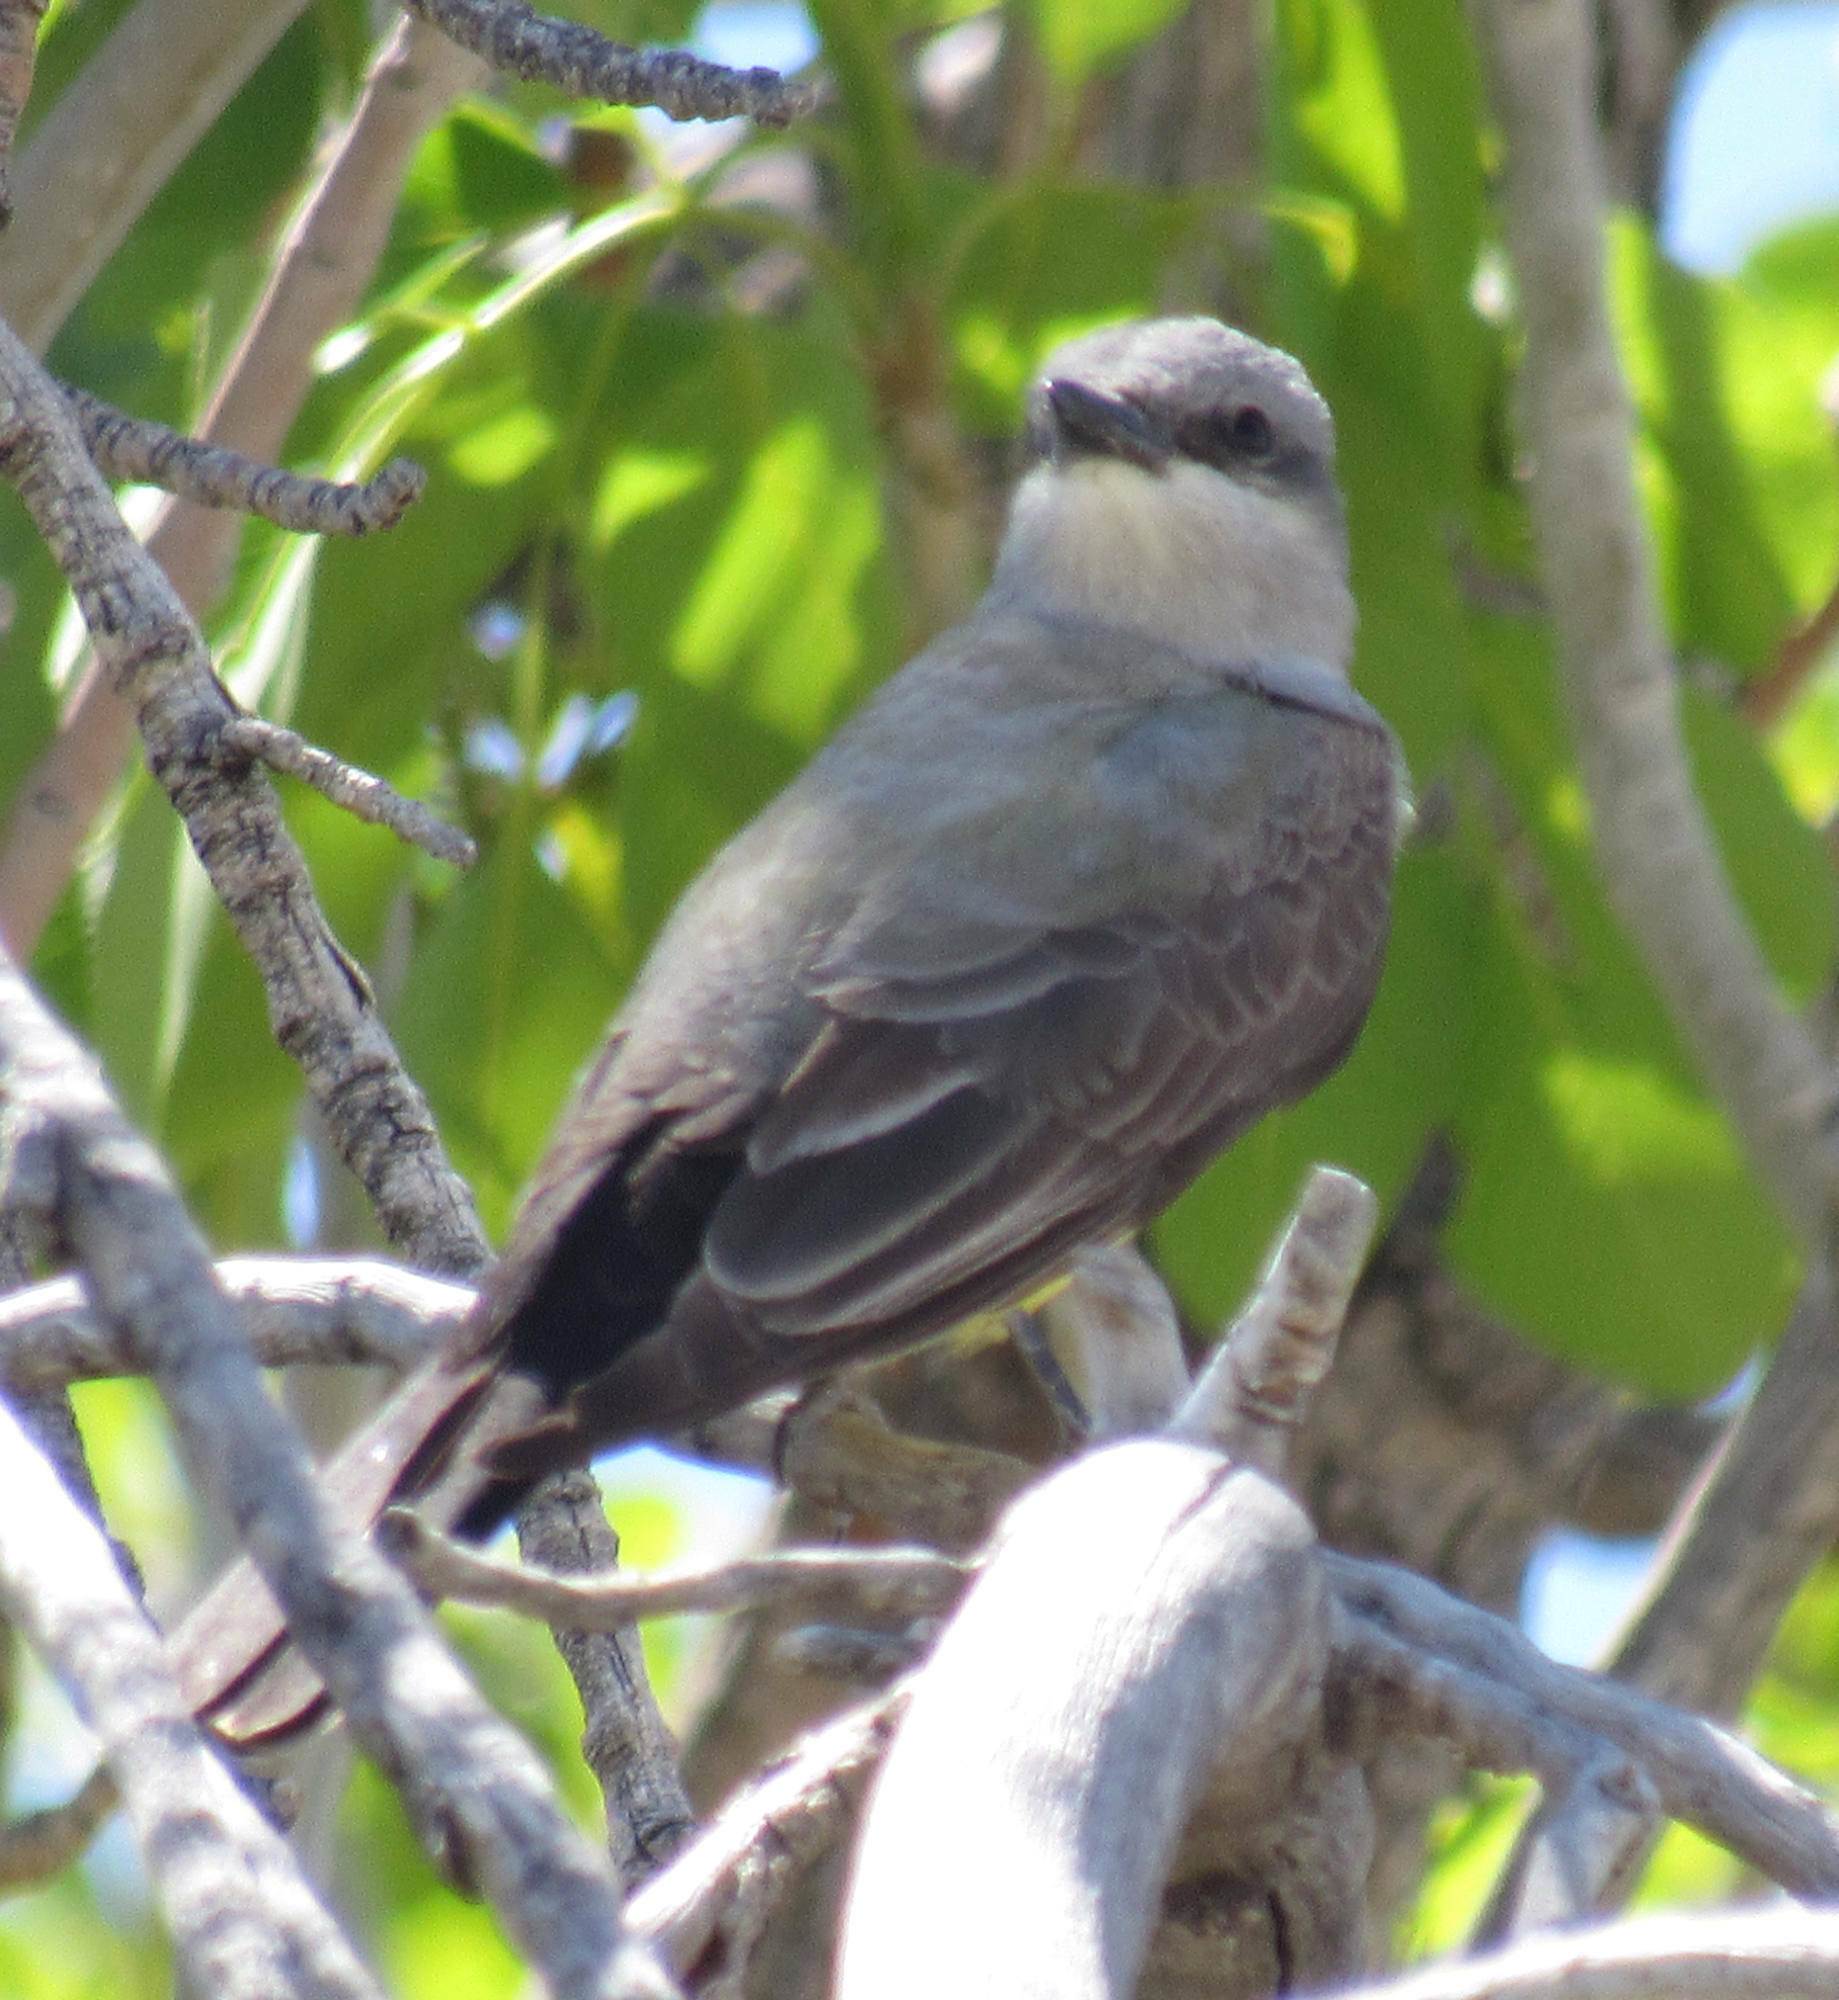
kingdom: Animalia
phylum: Chordata
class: Aves
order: Passeriformes
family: Tyrannidae
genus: Tyrannus
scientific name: Tyrannus verticalis
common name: Western kingbird
